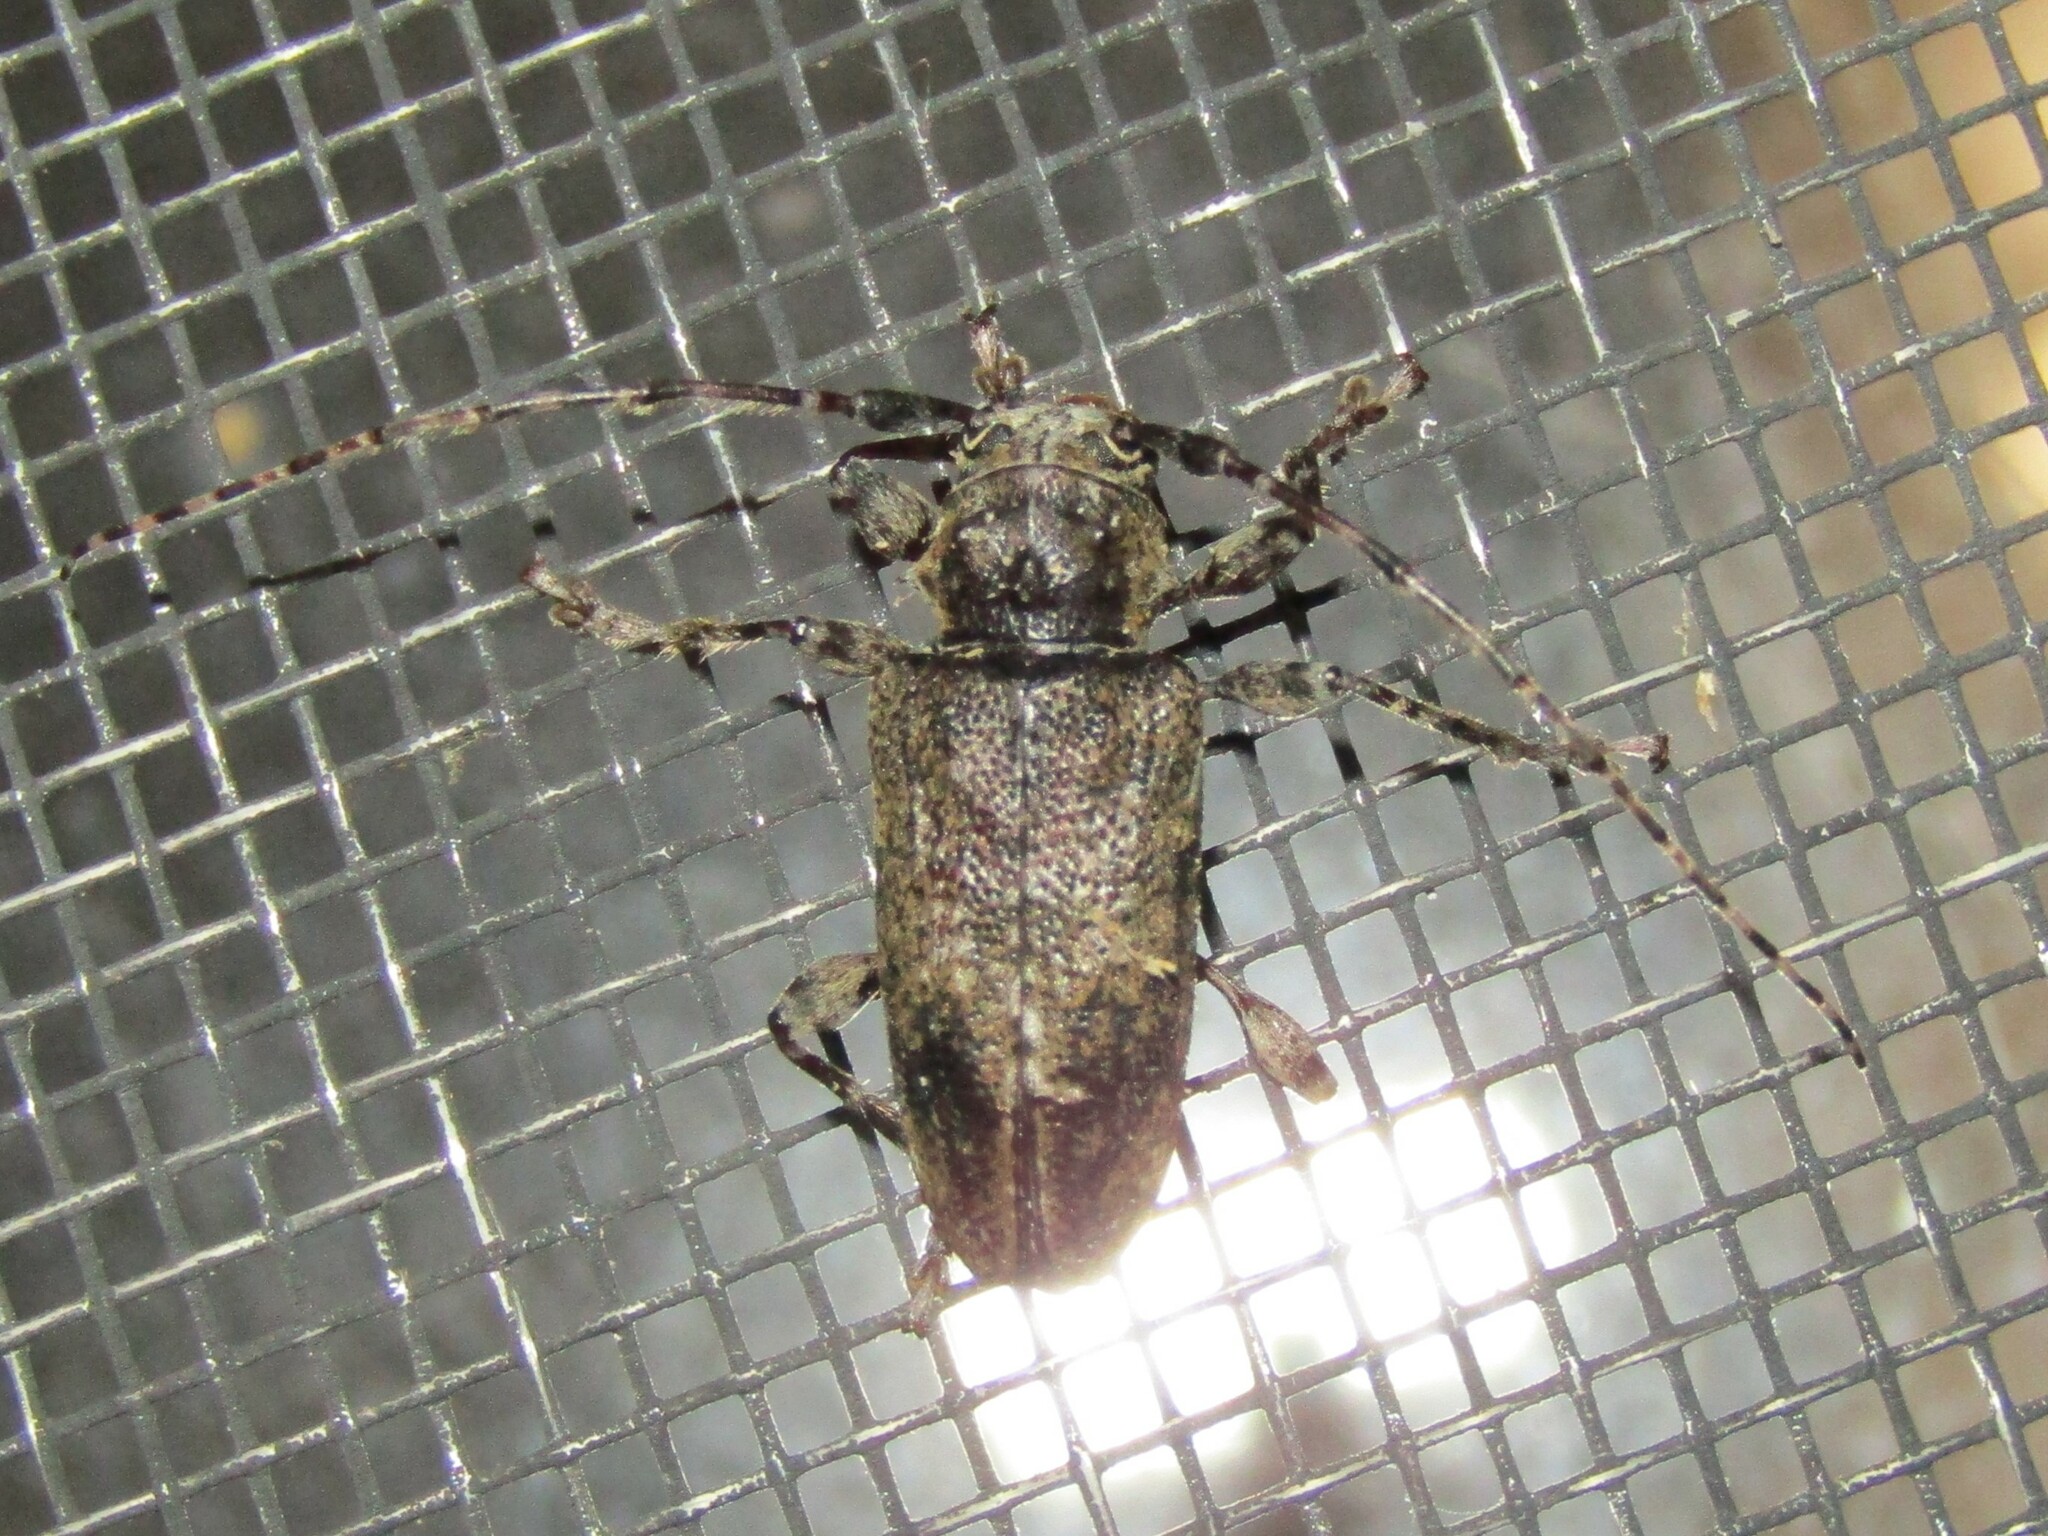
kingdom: Animalia
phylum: Arthropoda
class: Insecta
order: Coleoptera
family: Cerambycidae
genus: Aegomorphus
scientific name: Aegomorphus modestus
